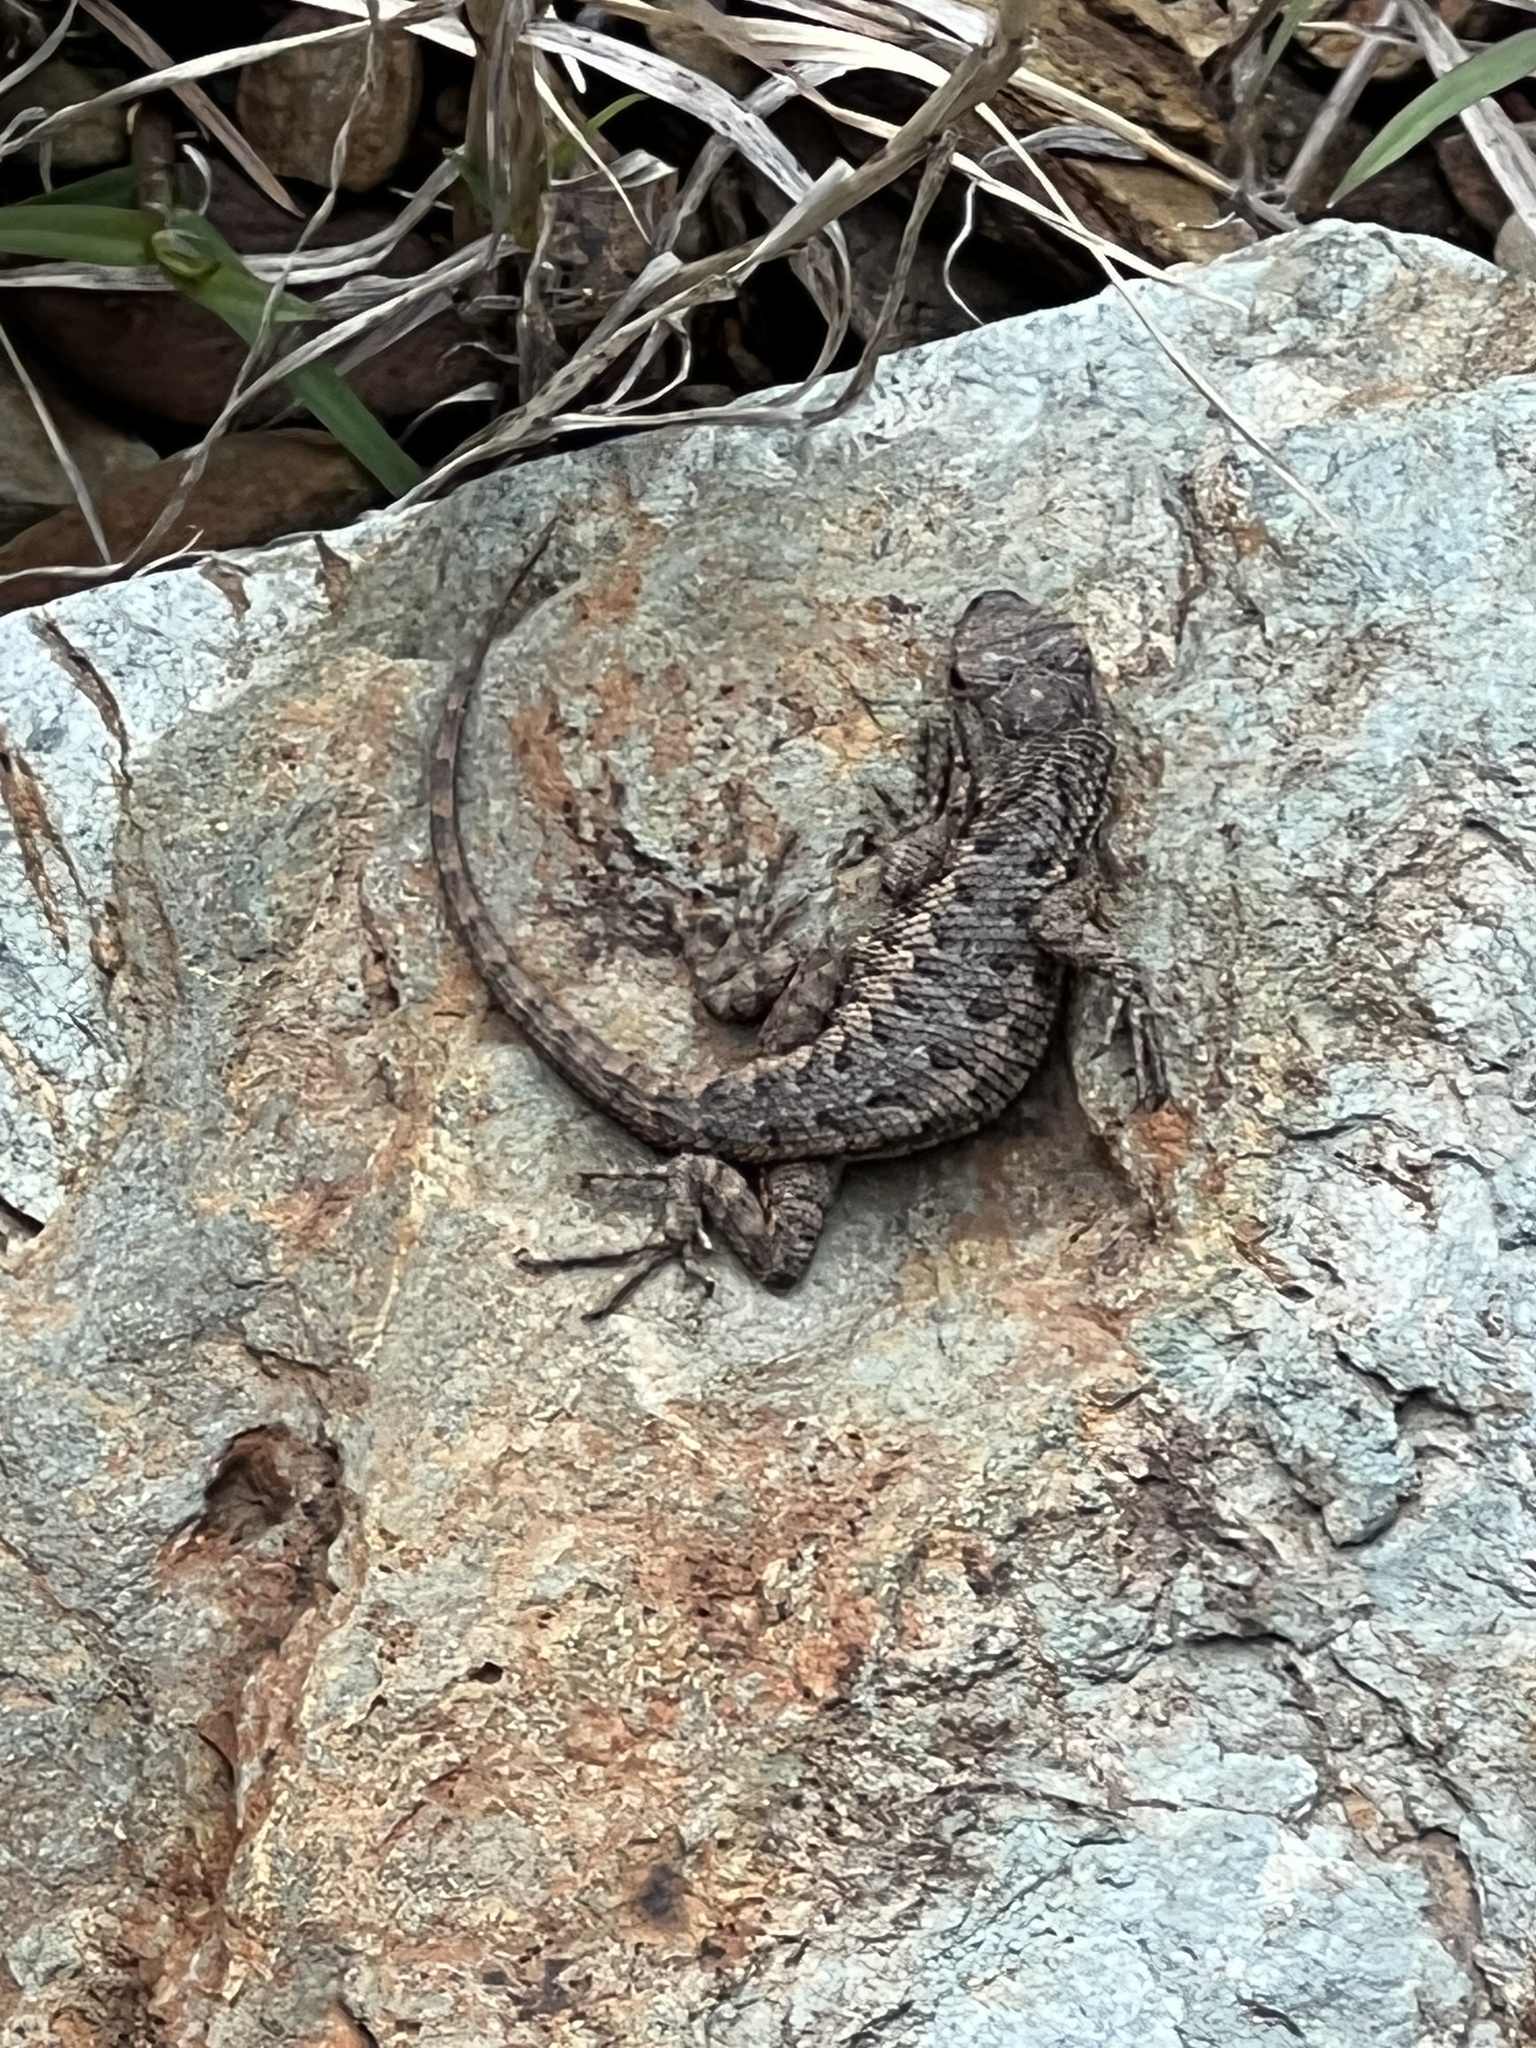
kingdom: Animalia
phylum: Chordata
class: Squamata
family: Phrynosomatidae
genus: Sceloporus
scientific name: Sceloporus occidentalis
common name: Western fence lizard
